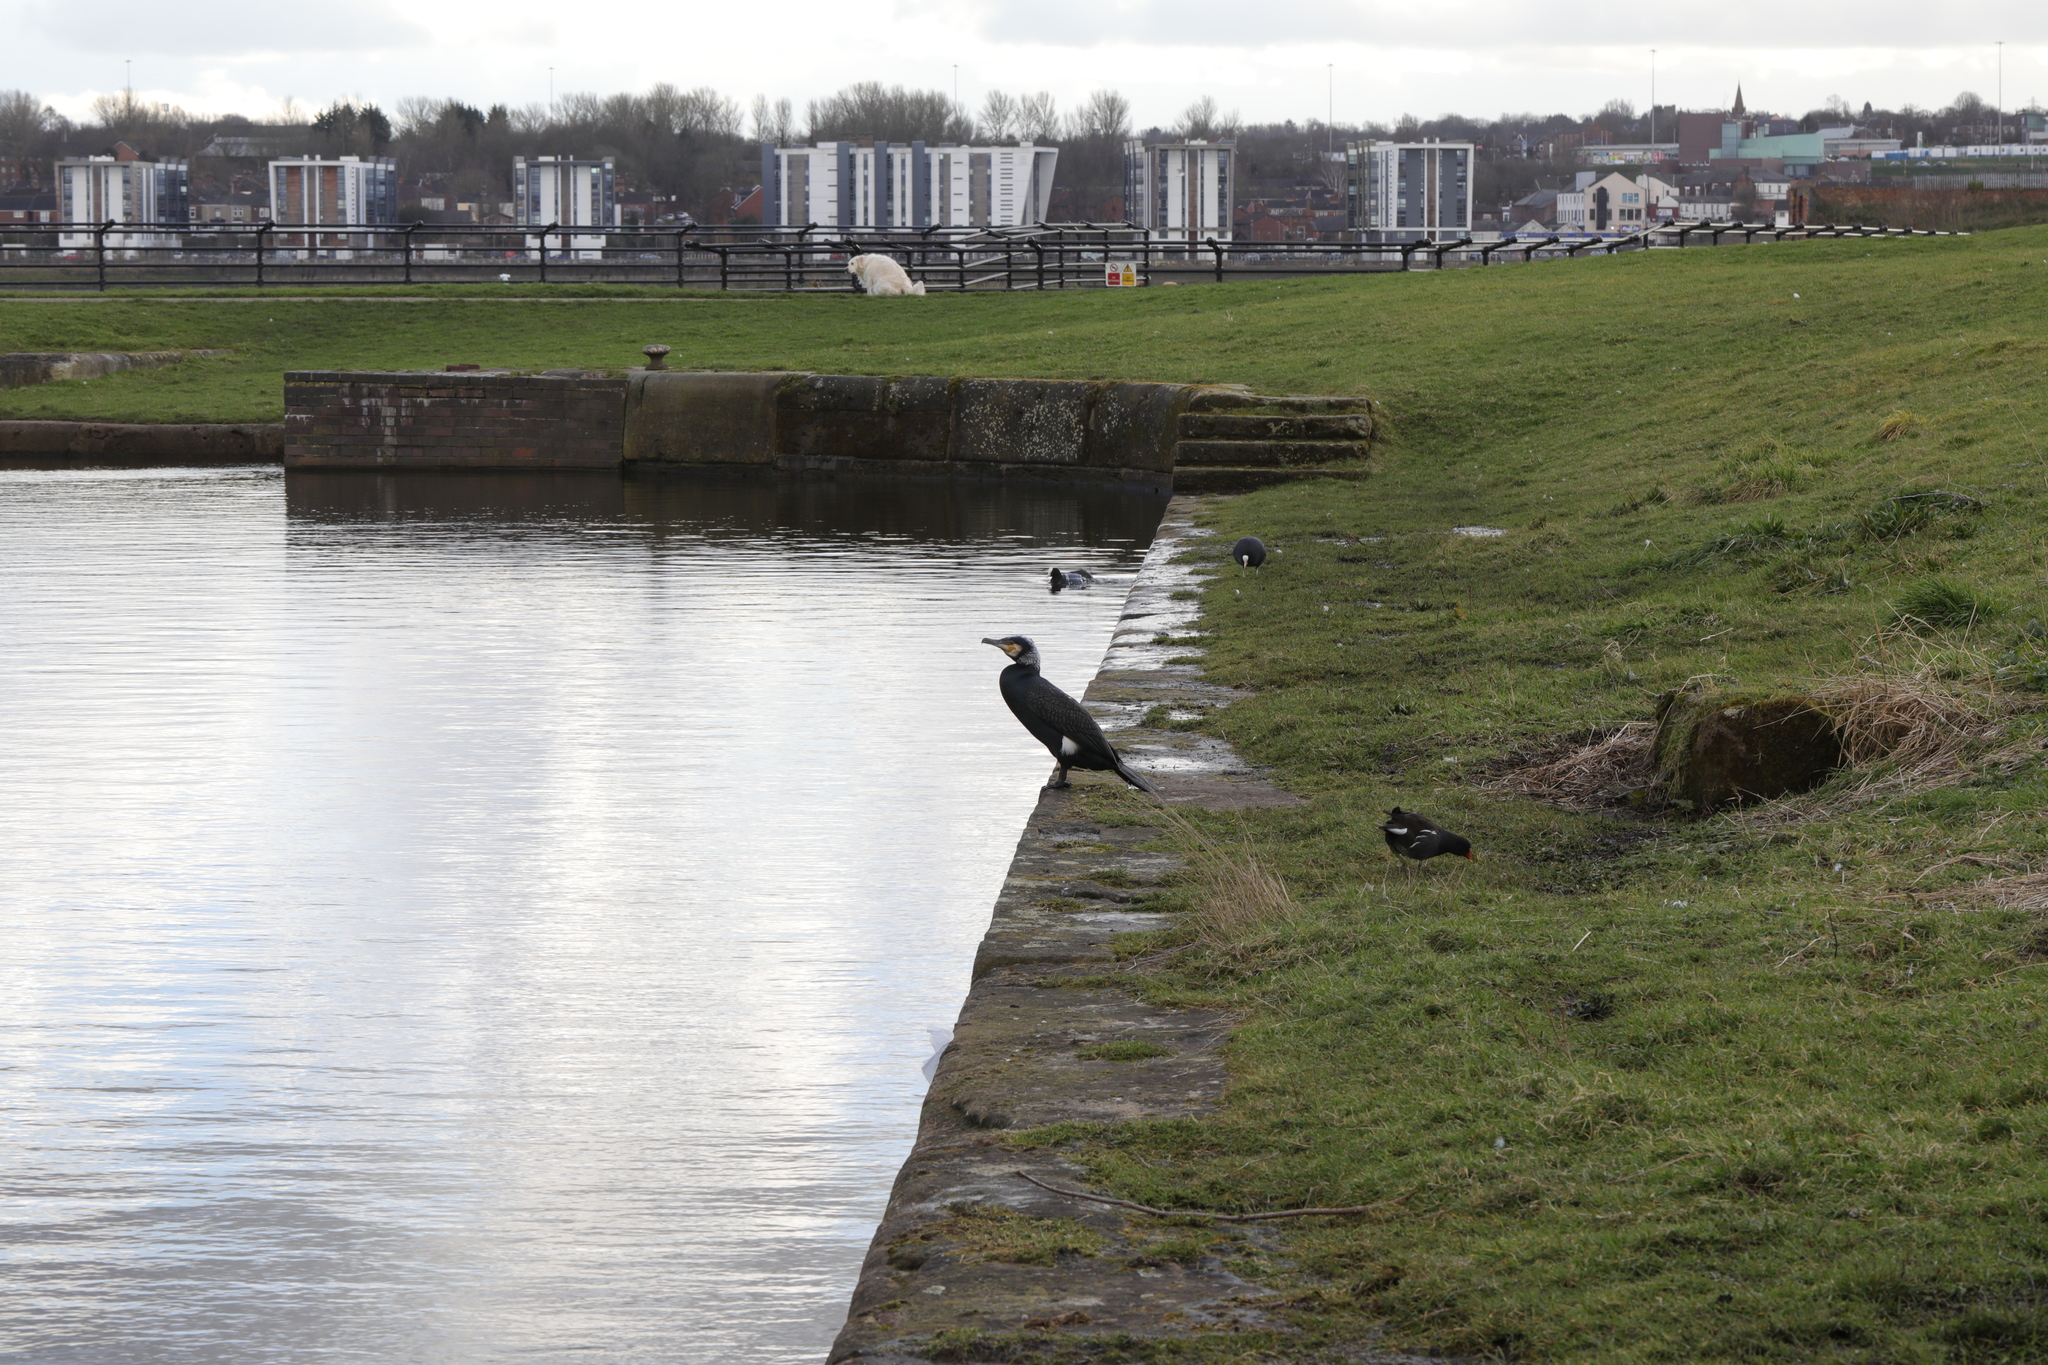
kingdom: Animalia
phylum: Chordata
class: Aves
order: Suliformes
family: Phalacrocoracidae
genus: Phalacrocorax
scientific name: Phalacrocorax carbo
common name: Great cormorant
